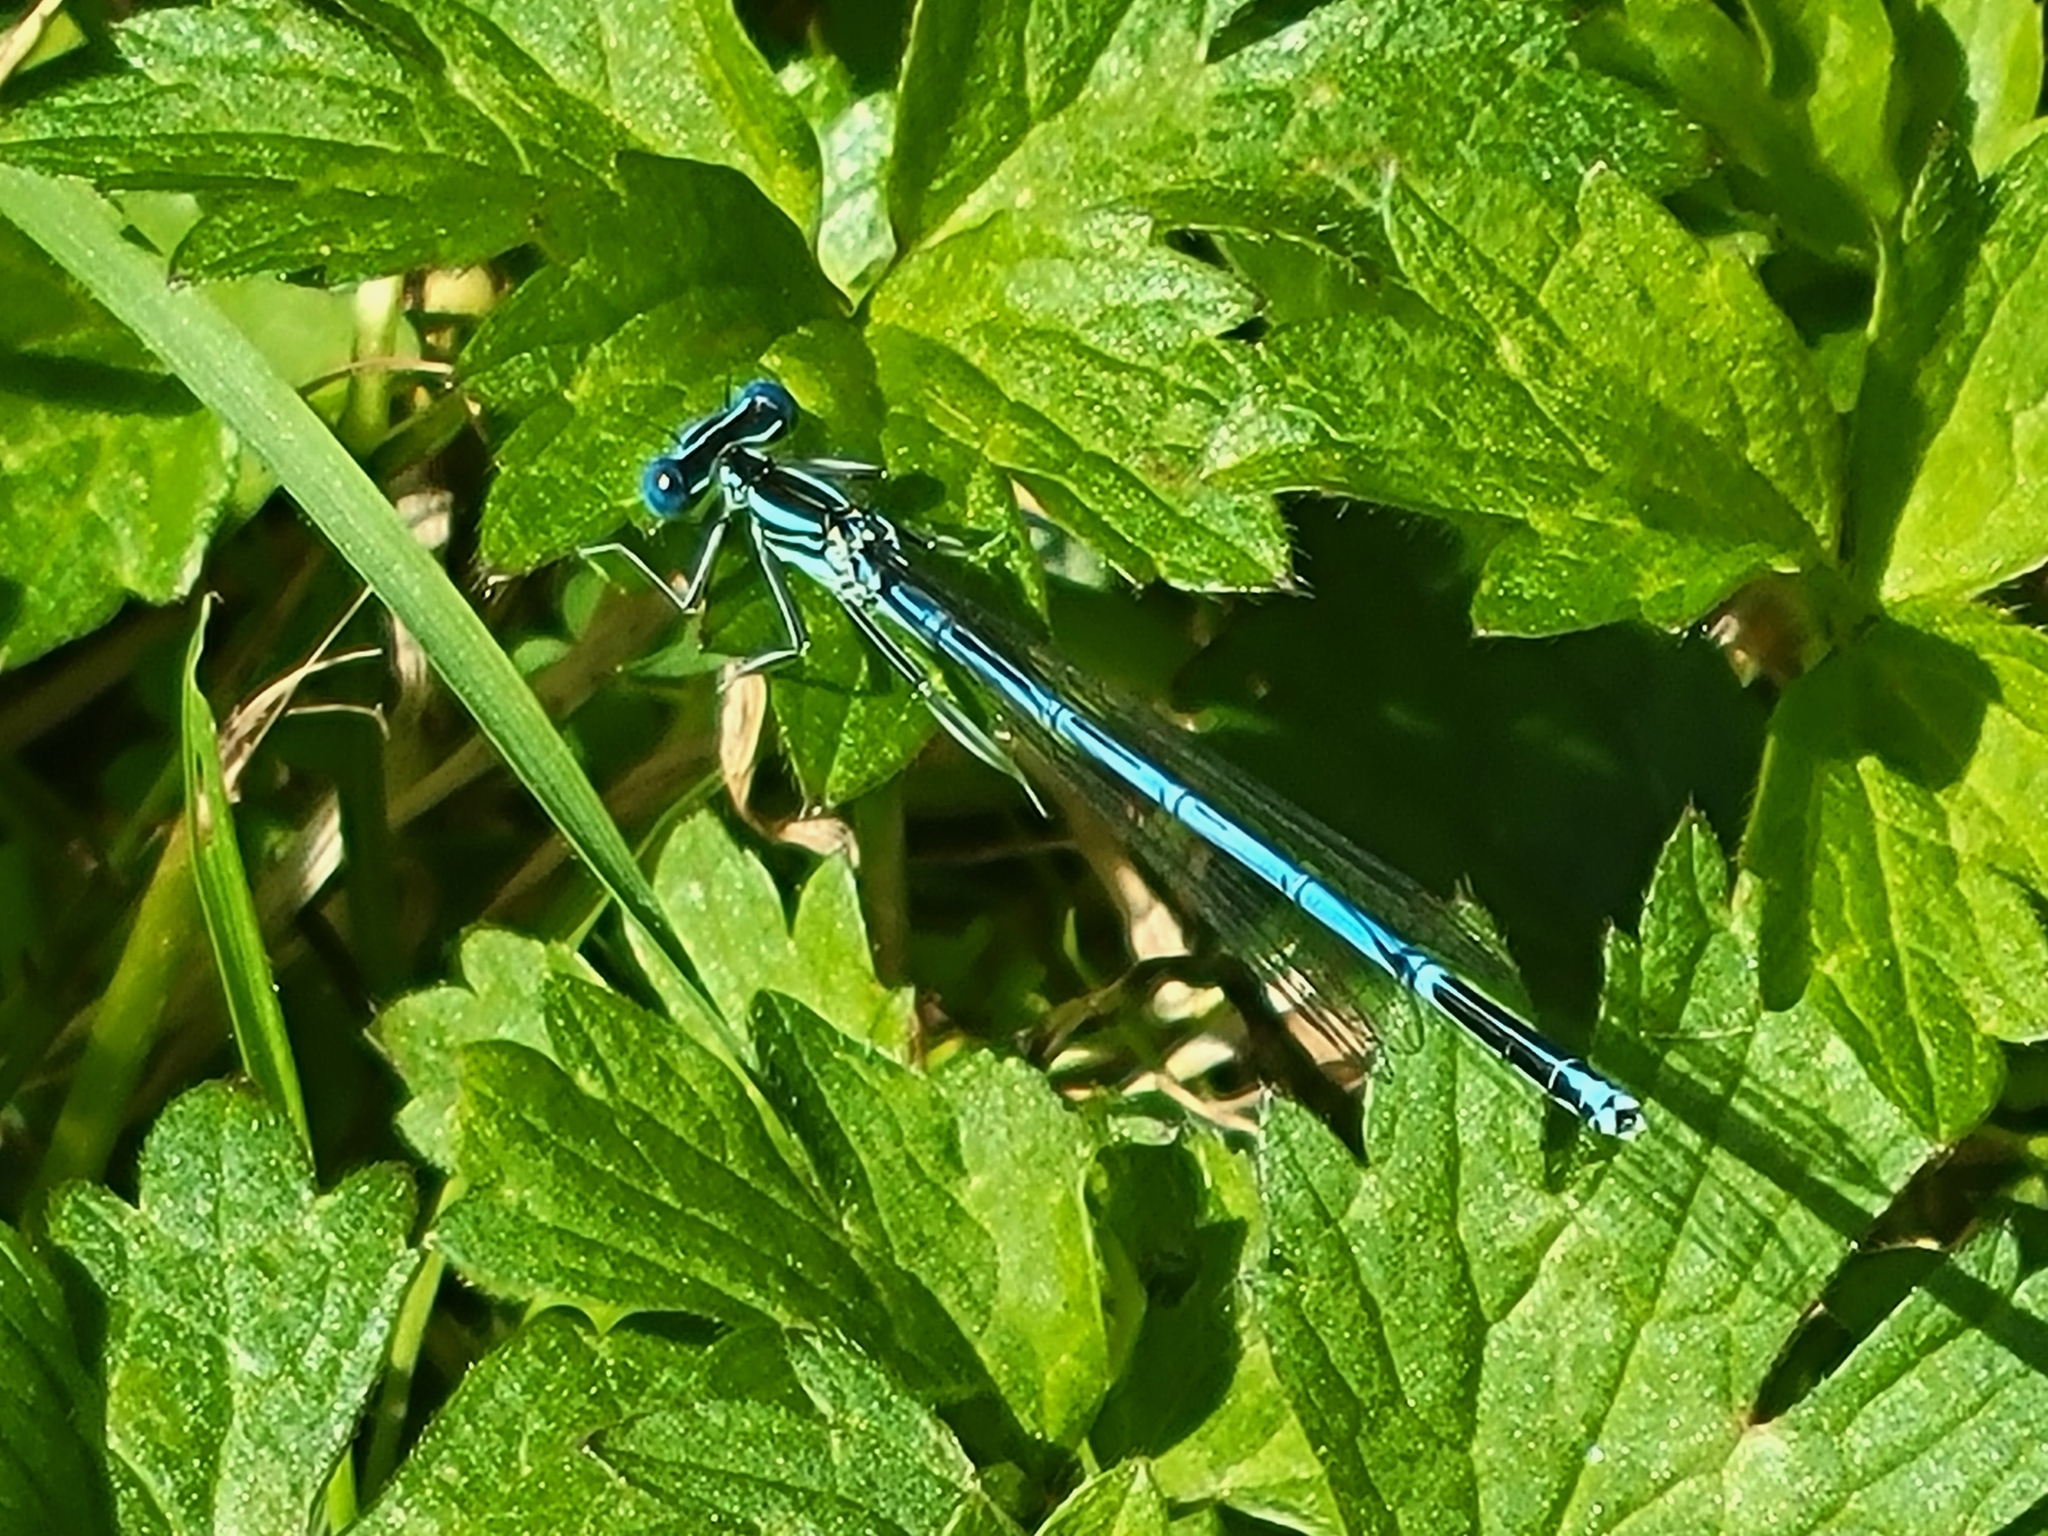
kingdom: Animalia
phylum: Arthropoda
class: Insecta
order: Odonata
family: Platycnemididae
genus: Platycnemis
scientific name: Platycnemis pennipes
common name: White-legged damselfly
